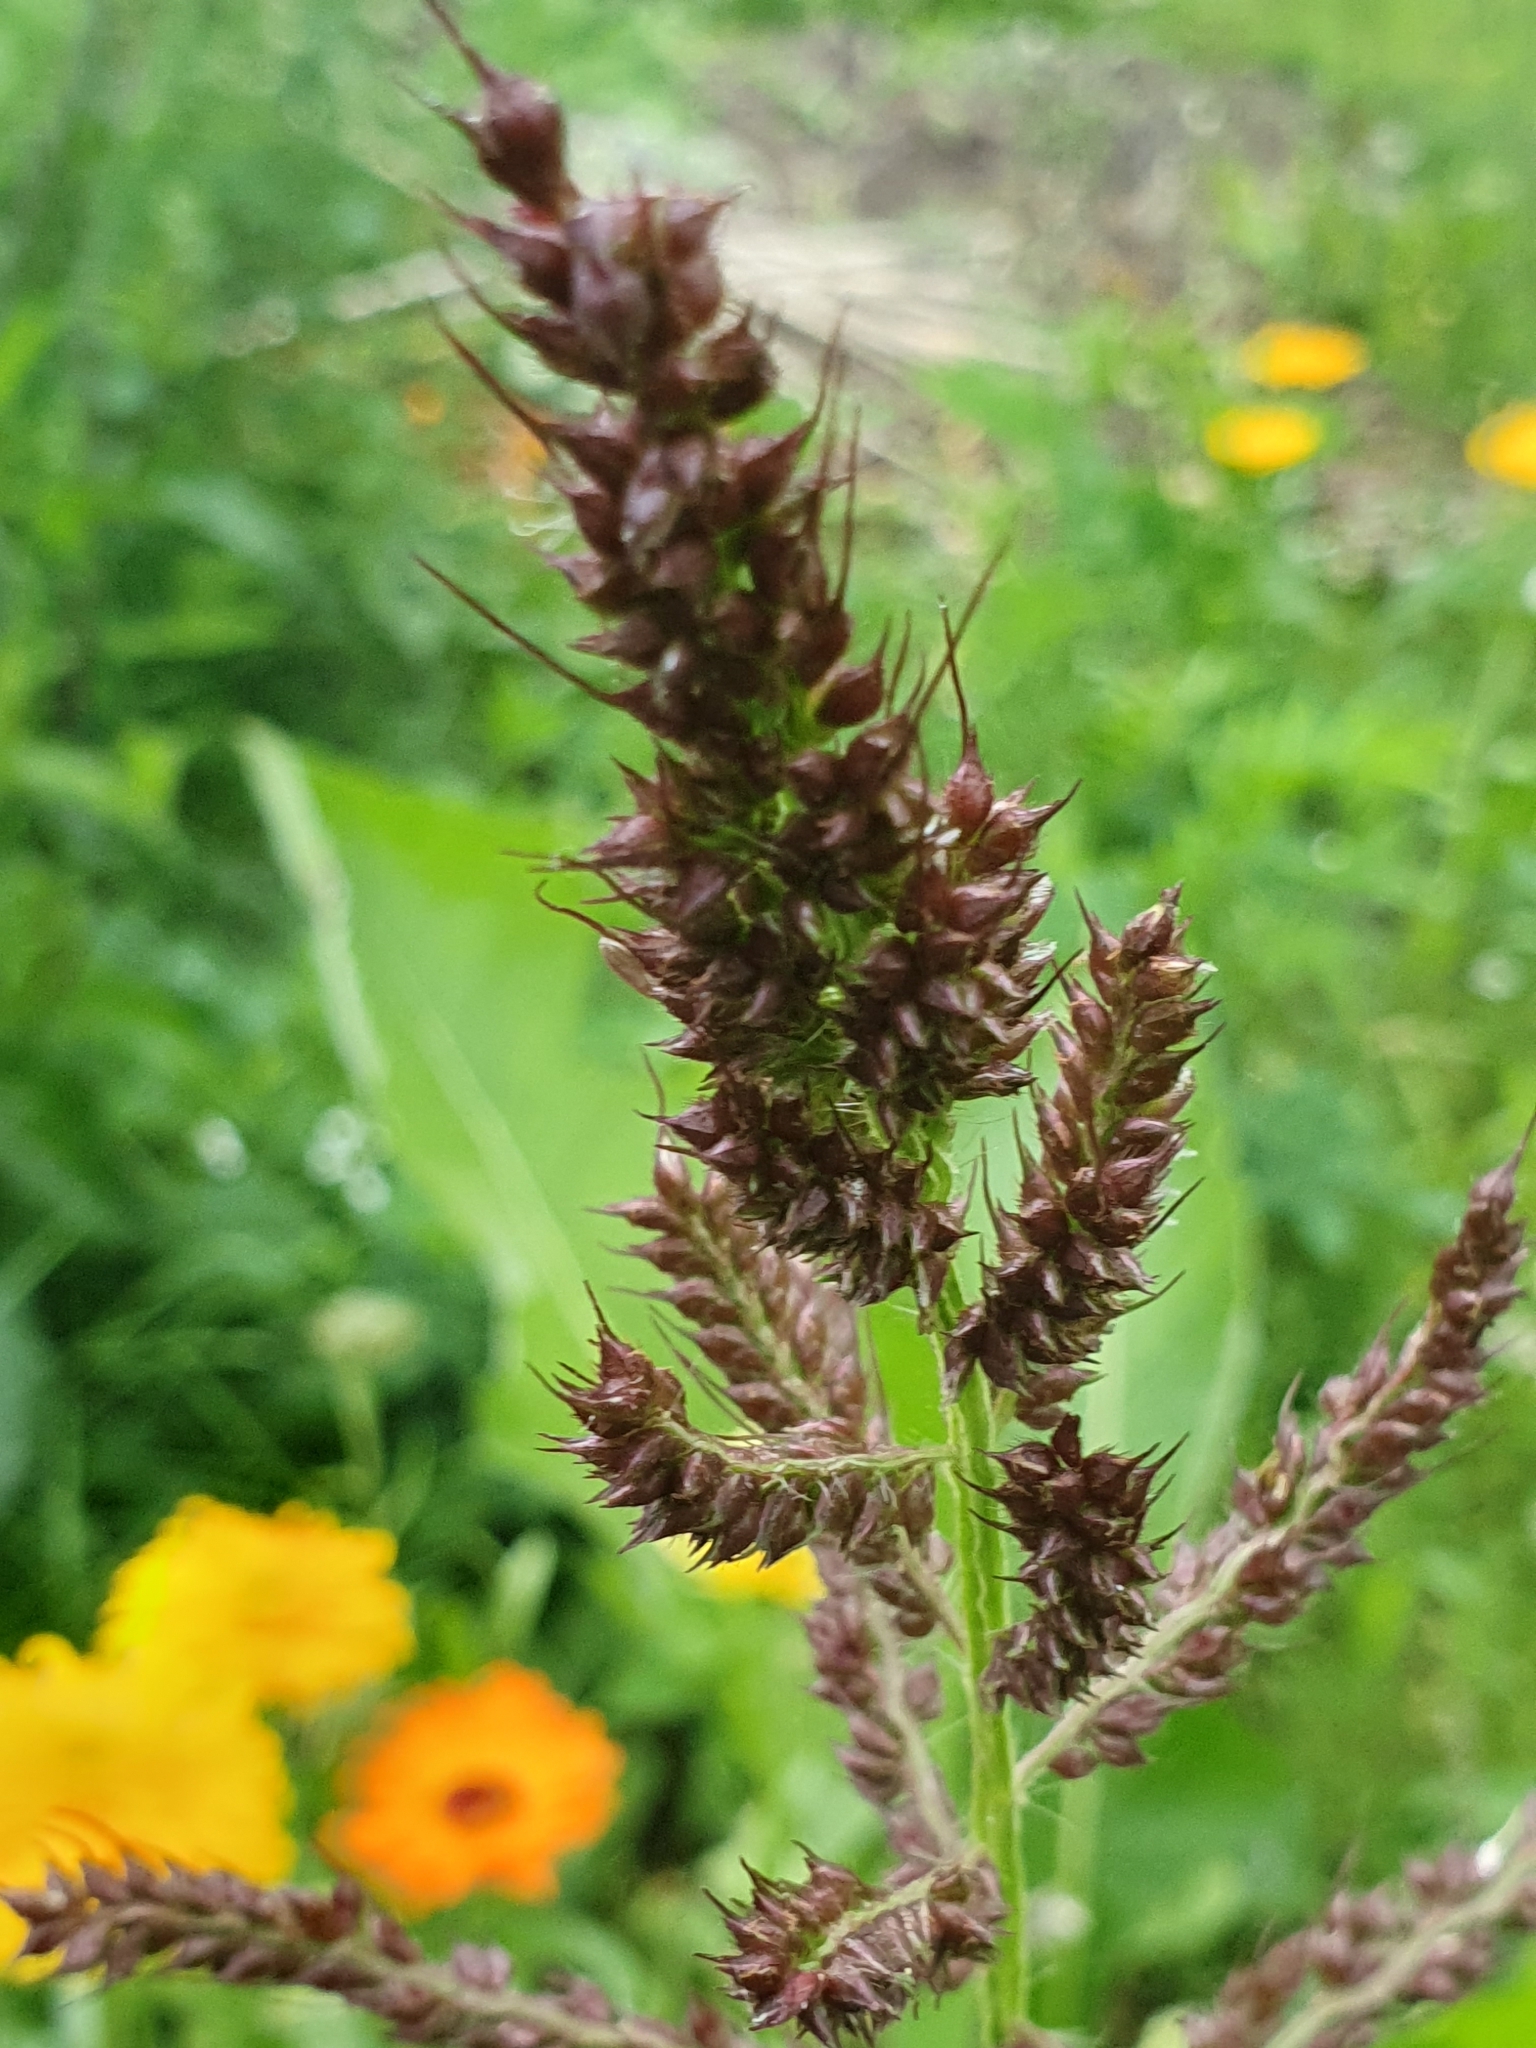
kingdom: Plantae
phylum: Tracheophyta
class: Liliopsida
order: Poales
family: Poaceae
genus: Echinochloa
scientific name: Echinochloa crus-galli
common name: Cockspur
